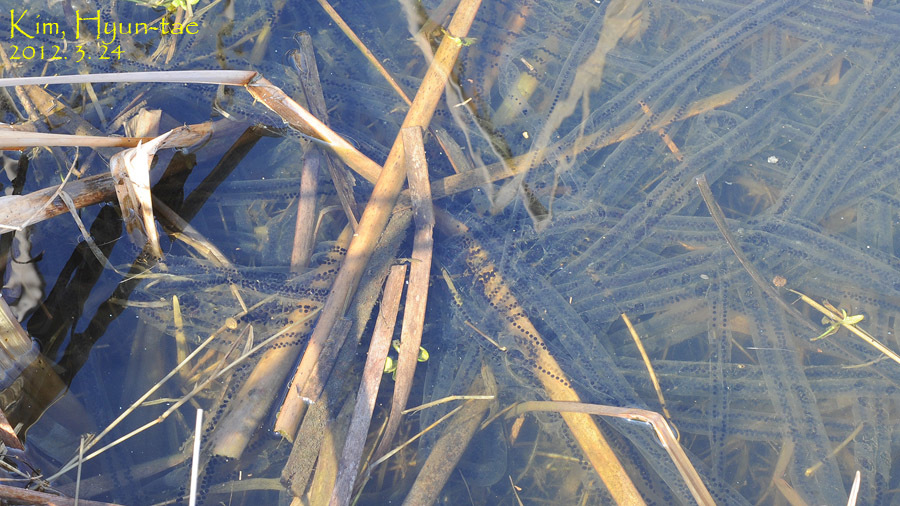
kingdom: Animalia
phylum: Chordata
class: Amphibia
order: Anura
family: Bufonidae
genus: Bufo
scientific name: Bufo gargarizans
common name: Asiatic toad
